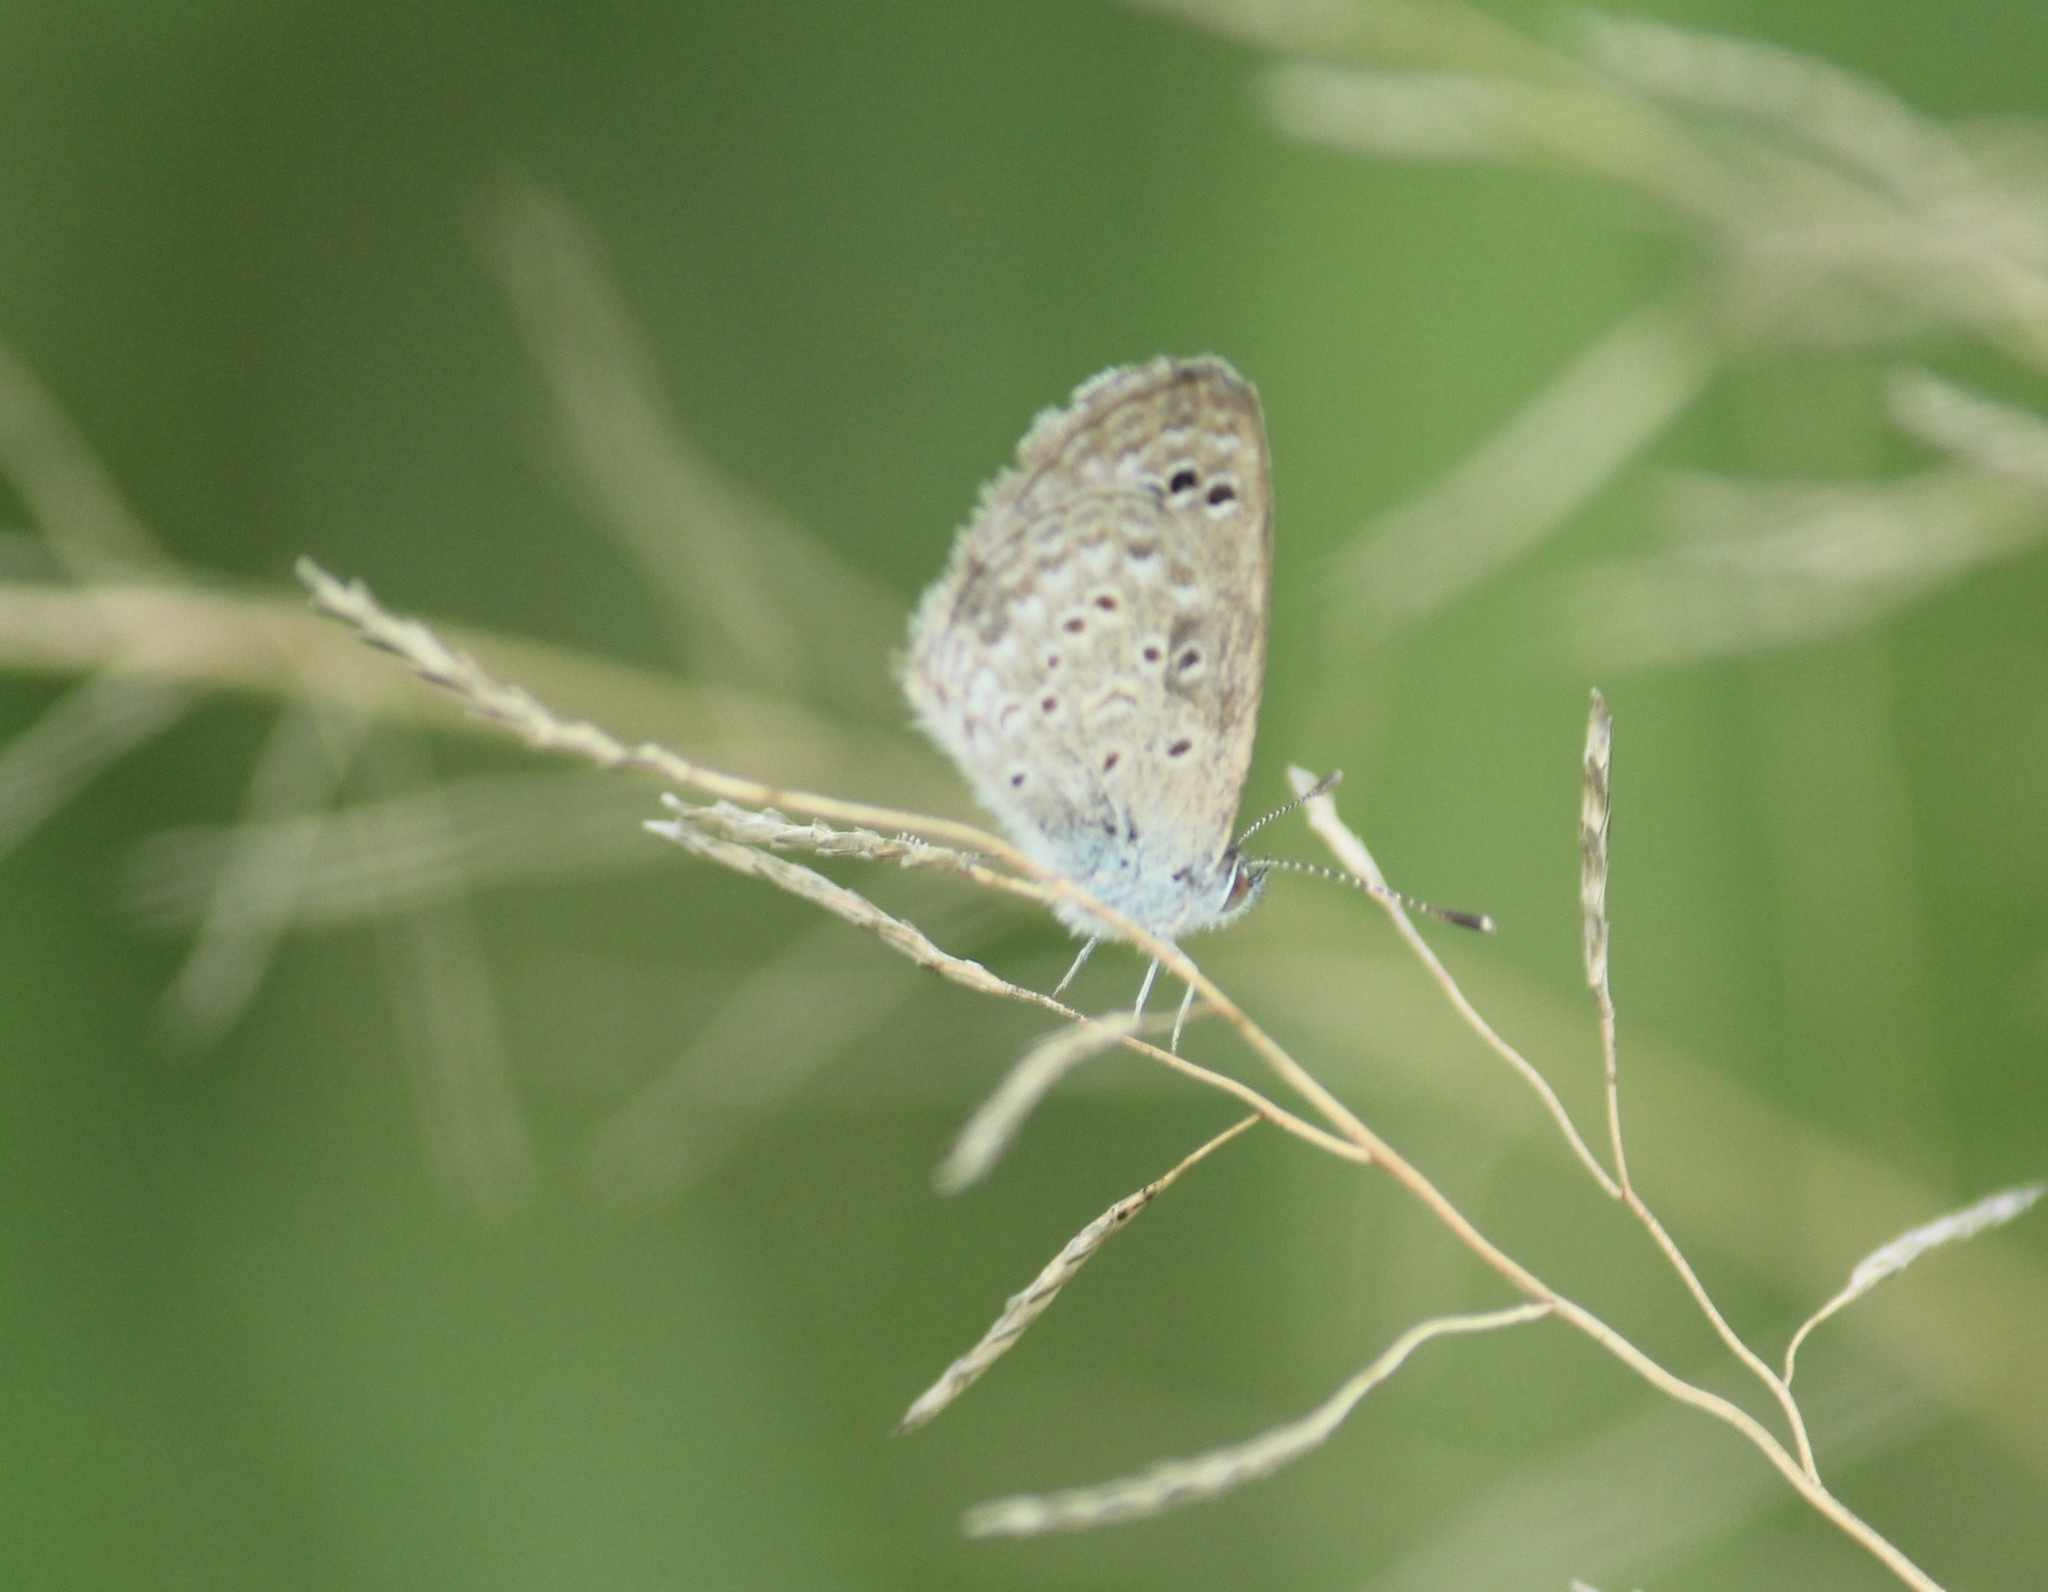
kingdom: Animalia
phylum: Arthropoda
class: Insecta
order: Lepidoptera
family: Lycaenidae
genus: Zizina
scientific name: Zizina otis
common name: Lesser grass blue
